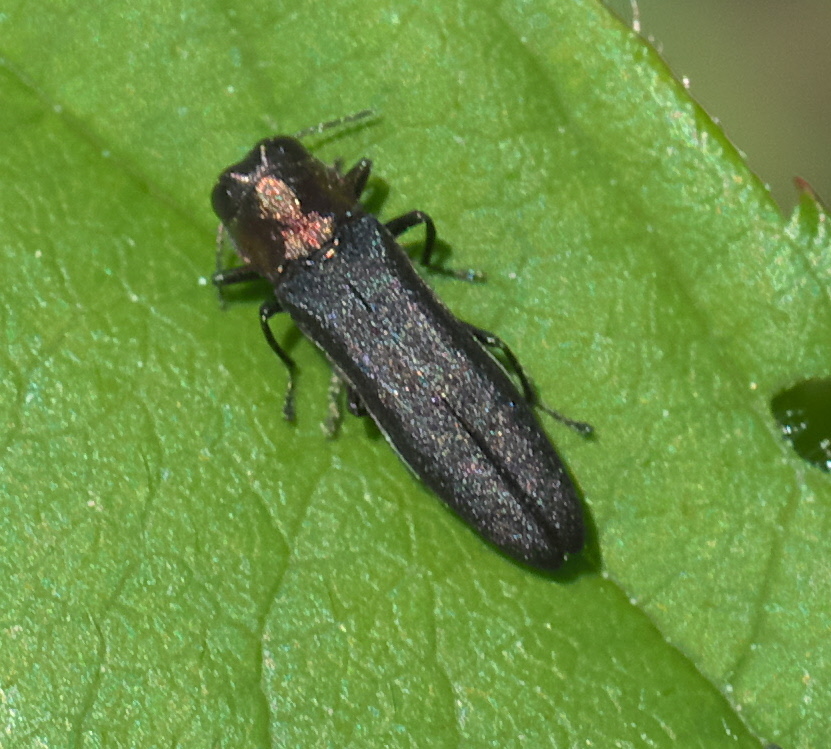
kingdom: Animalia
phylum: Arthropoda
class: Insecta
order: Coleoptera
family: Buprestidae
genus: Agrilus
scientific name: Agrilus ruficollis
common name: Red-necked cane borer beetle
